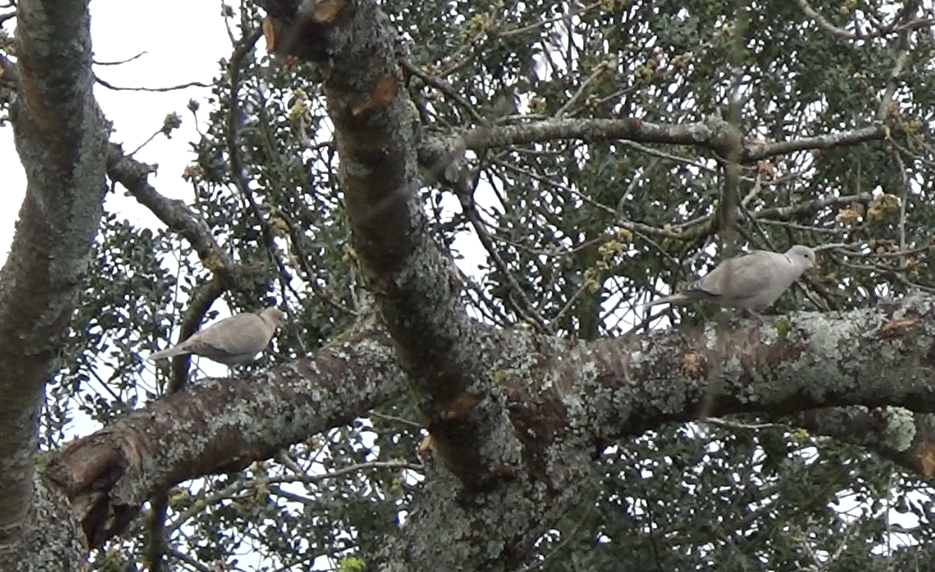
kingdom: Animalia
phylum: Chordata
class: Aves
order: Columbiformes
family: Columbidae
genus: Streptopelia
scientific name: Streptopelia decaocto
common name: Eurasian collared dove
